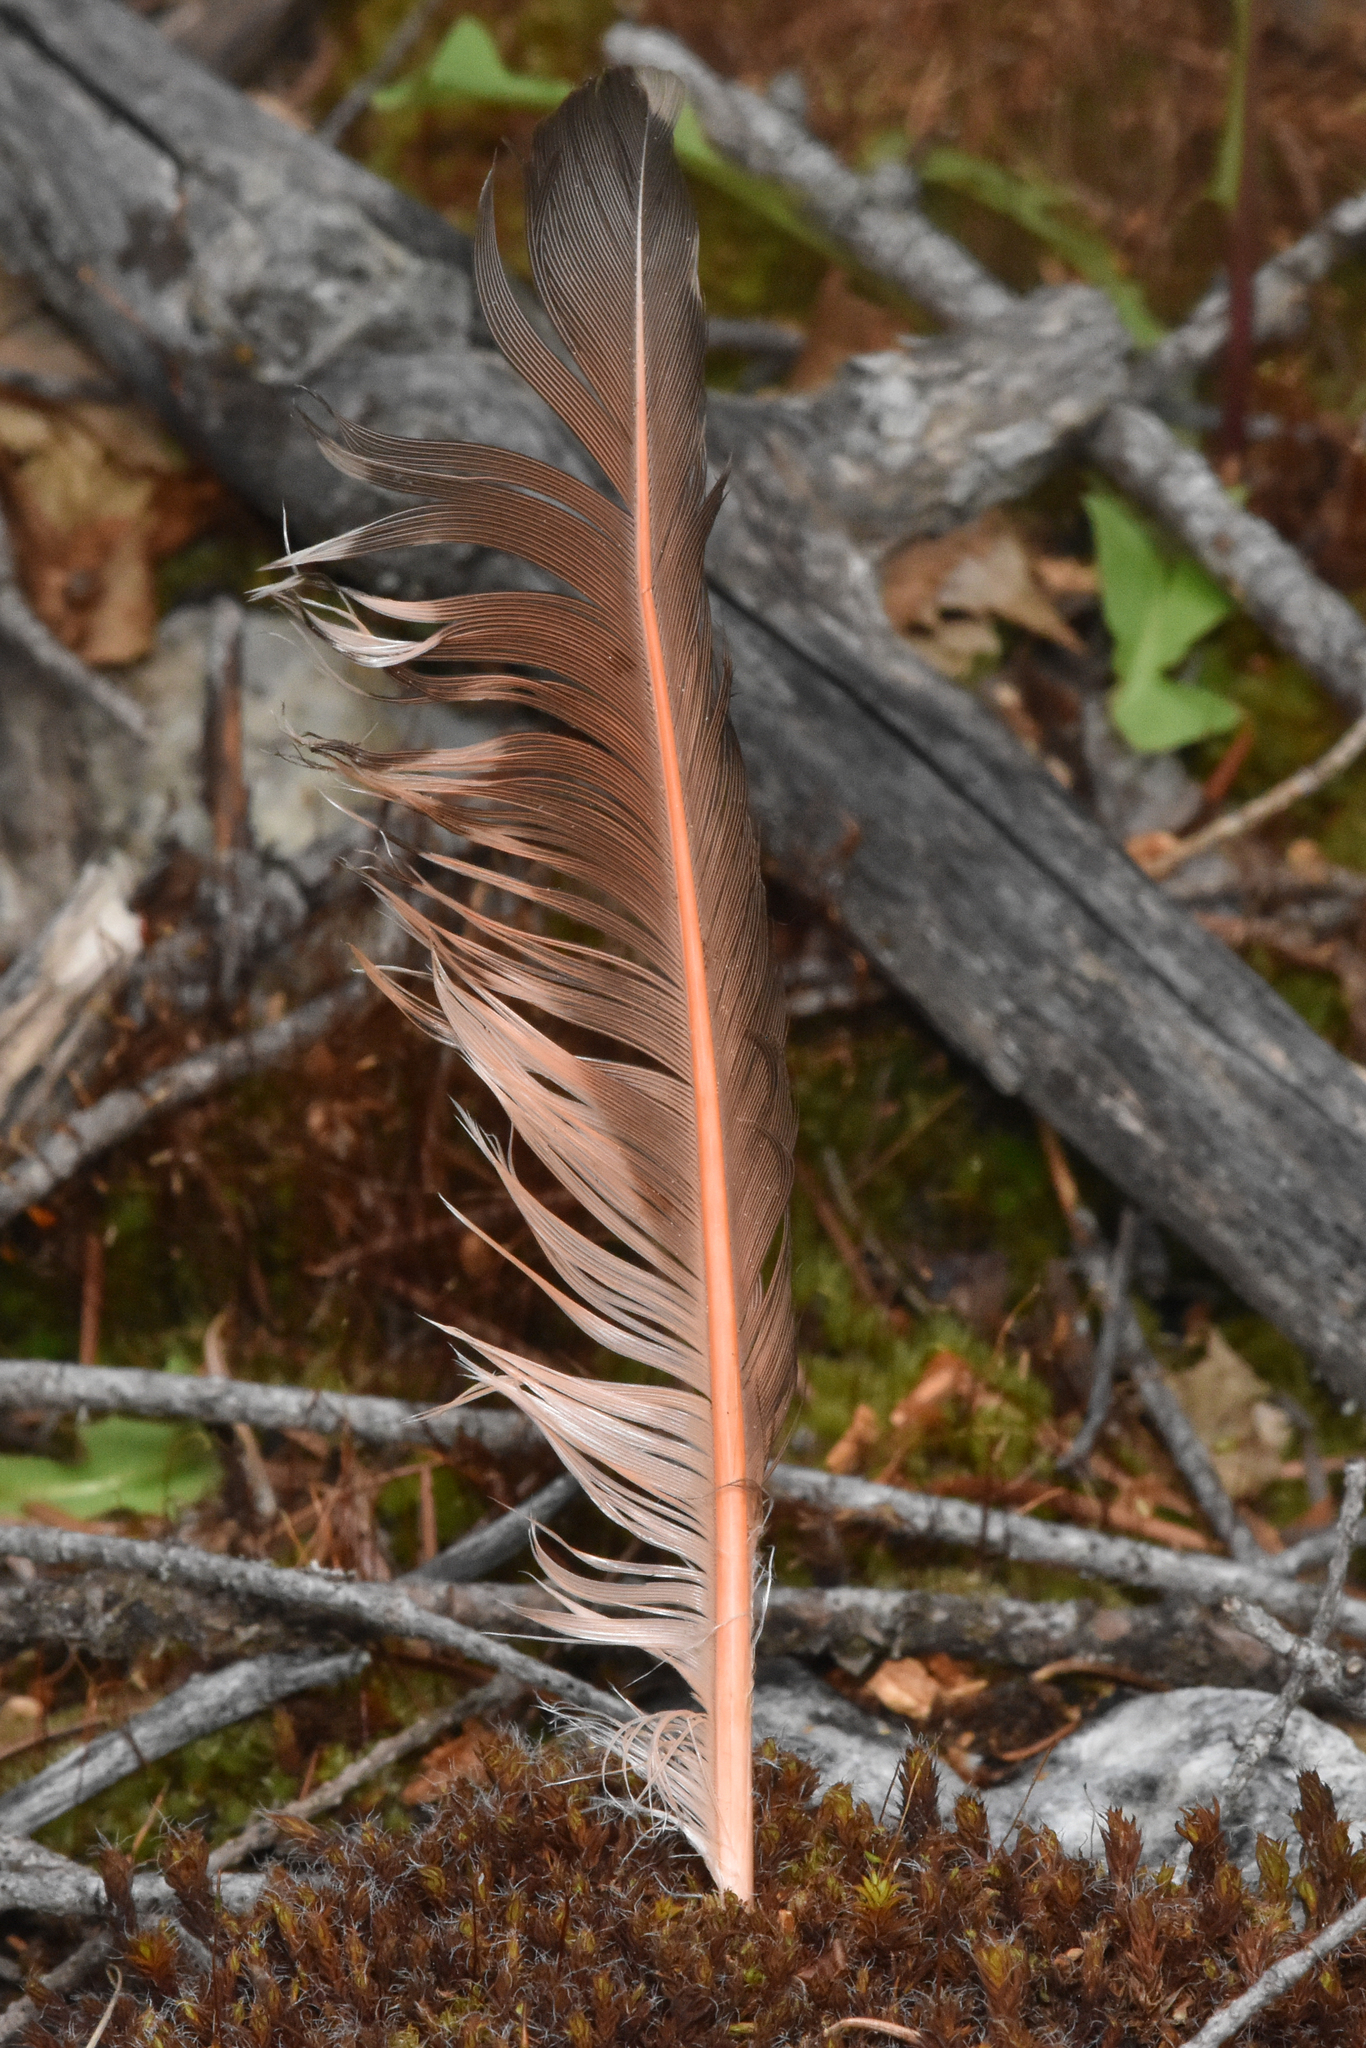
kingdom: Animalia
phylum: Chordata
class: Aves
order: Piciformes
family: Picidae
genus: Colaptes
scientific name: Colaptes auratus
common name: Northern flicker
